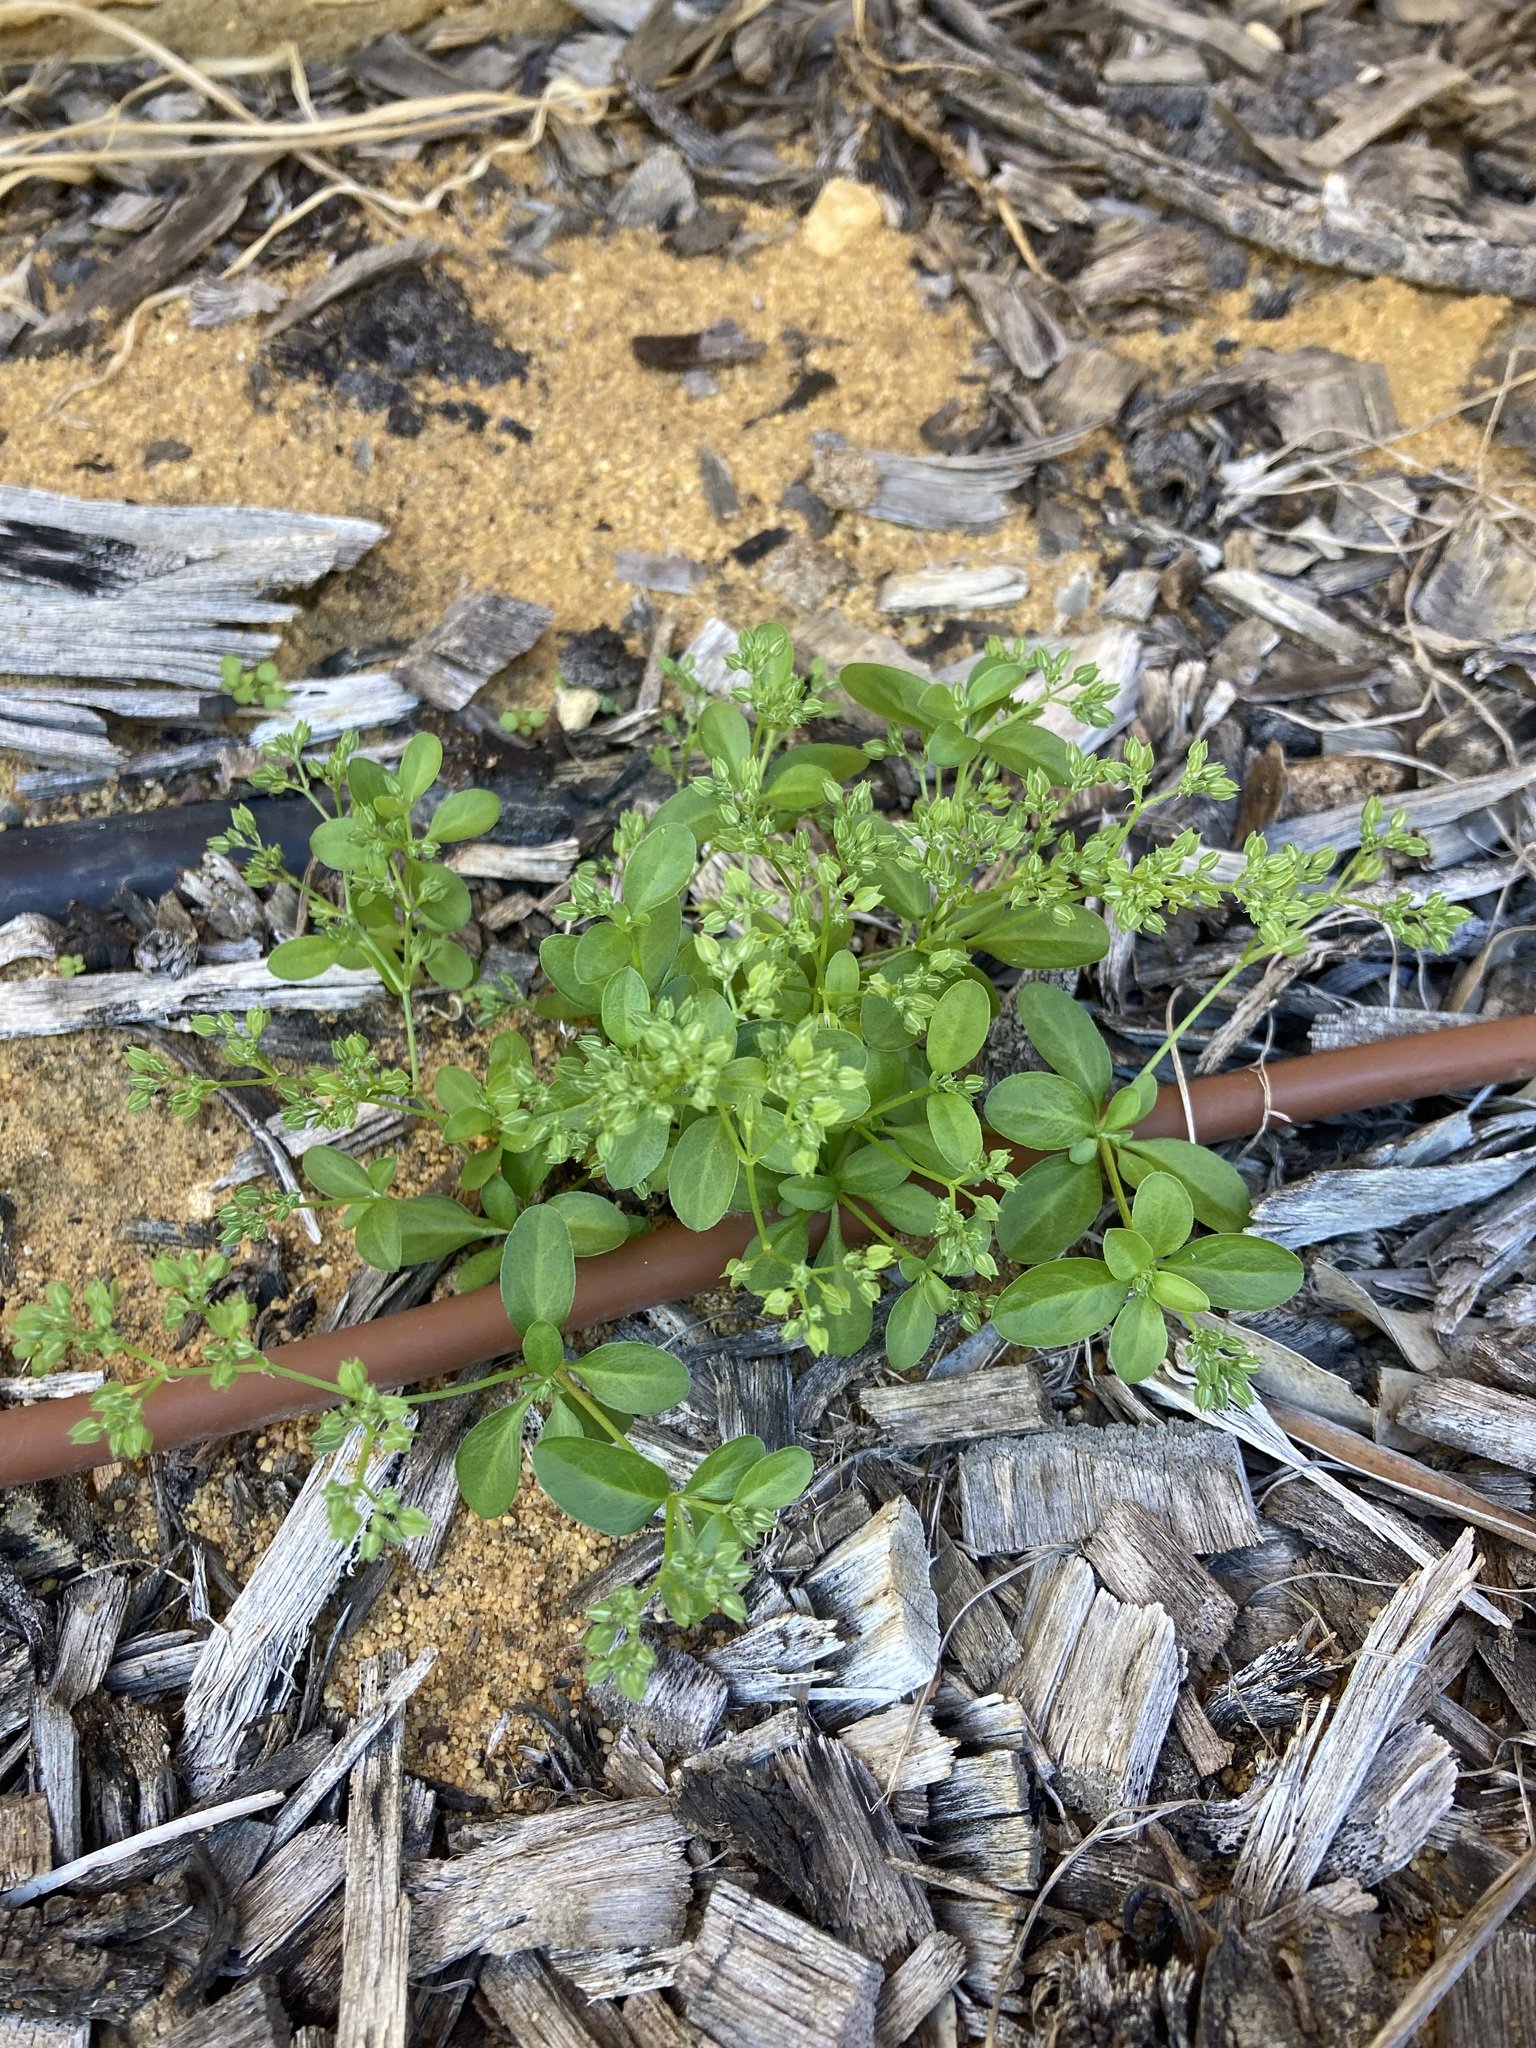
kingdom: Plantae
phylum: Tracheophyta
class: Magnoliopsida
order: Caryophyllales
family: Caryophyllaceae
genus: Polycarpon
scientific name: Polycarpon tetraphyllum
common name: Four-leaved all-seed
